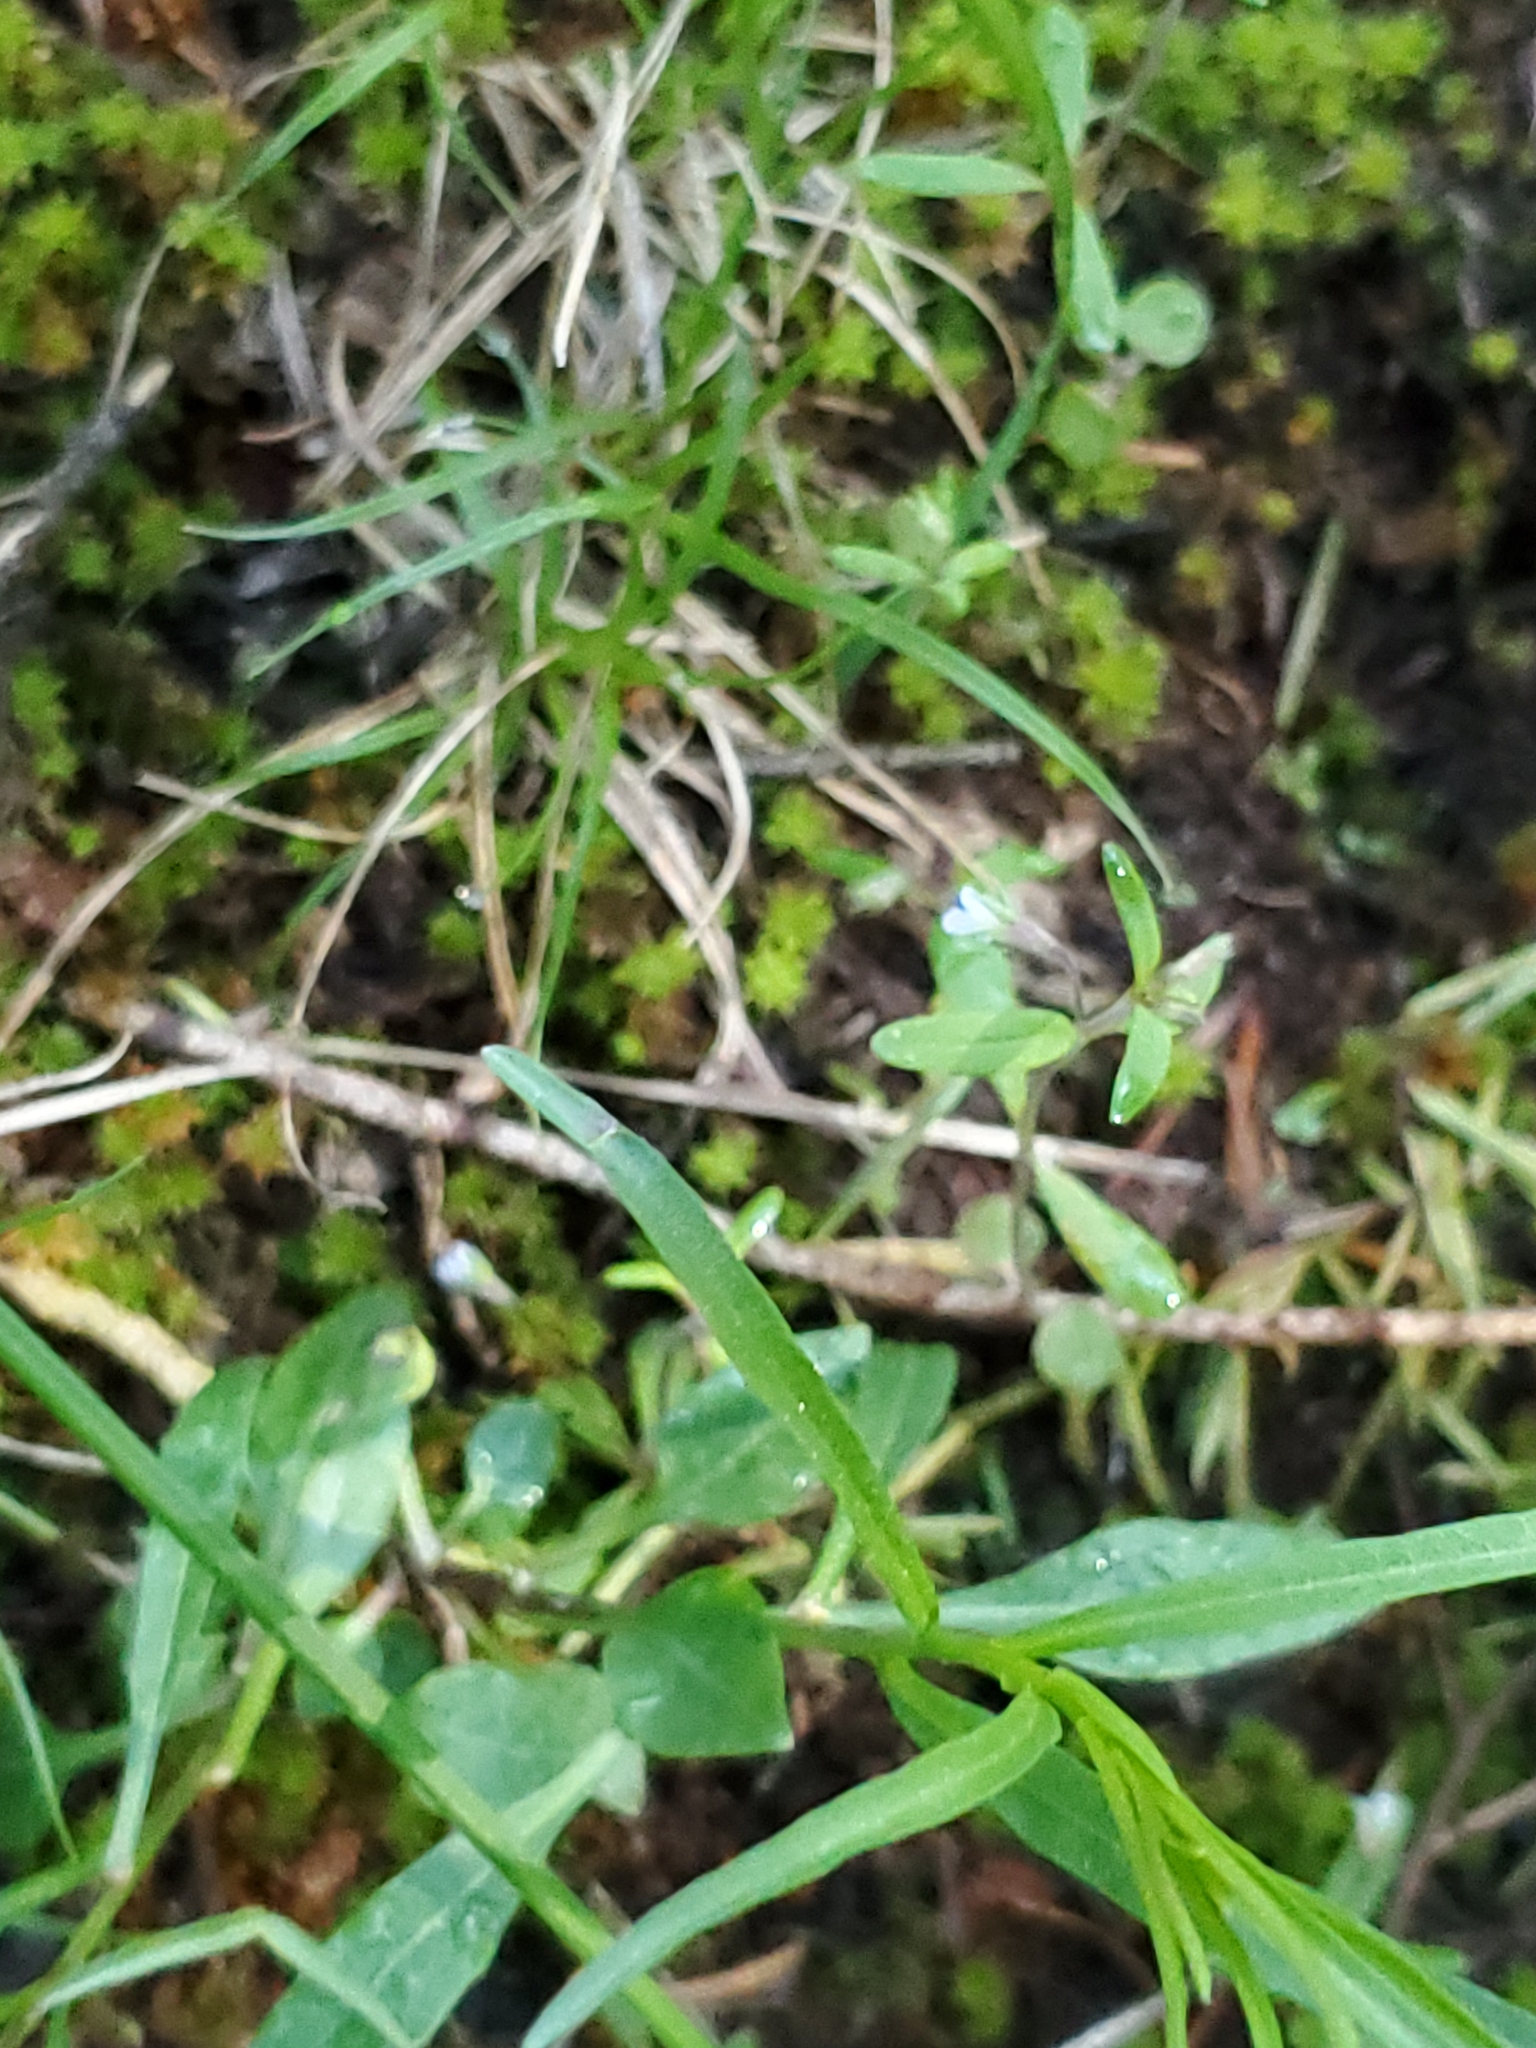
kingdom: Plantae
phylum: Tracheophyta
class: Magnoliopsida
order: Lamiales
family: Plantaginaceae
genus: Collinsia
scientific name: Collinsia parviflora
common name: Blue-lips
